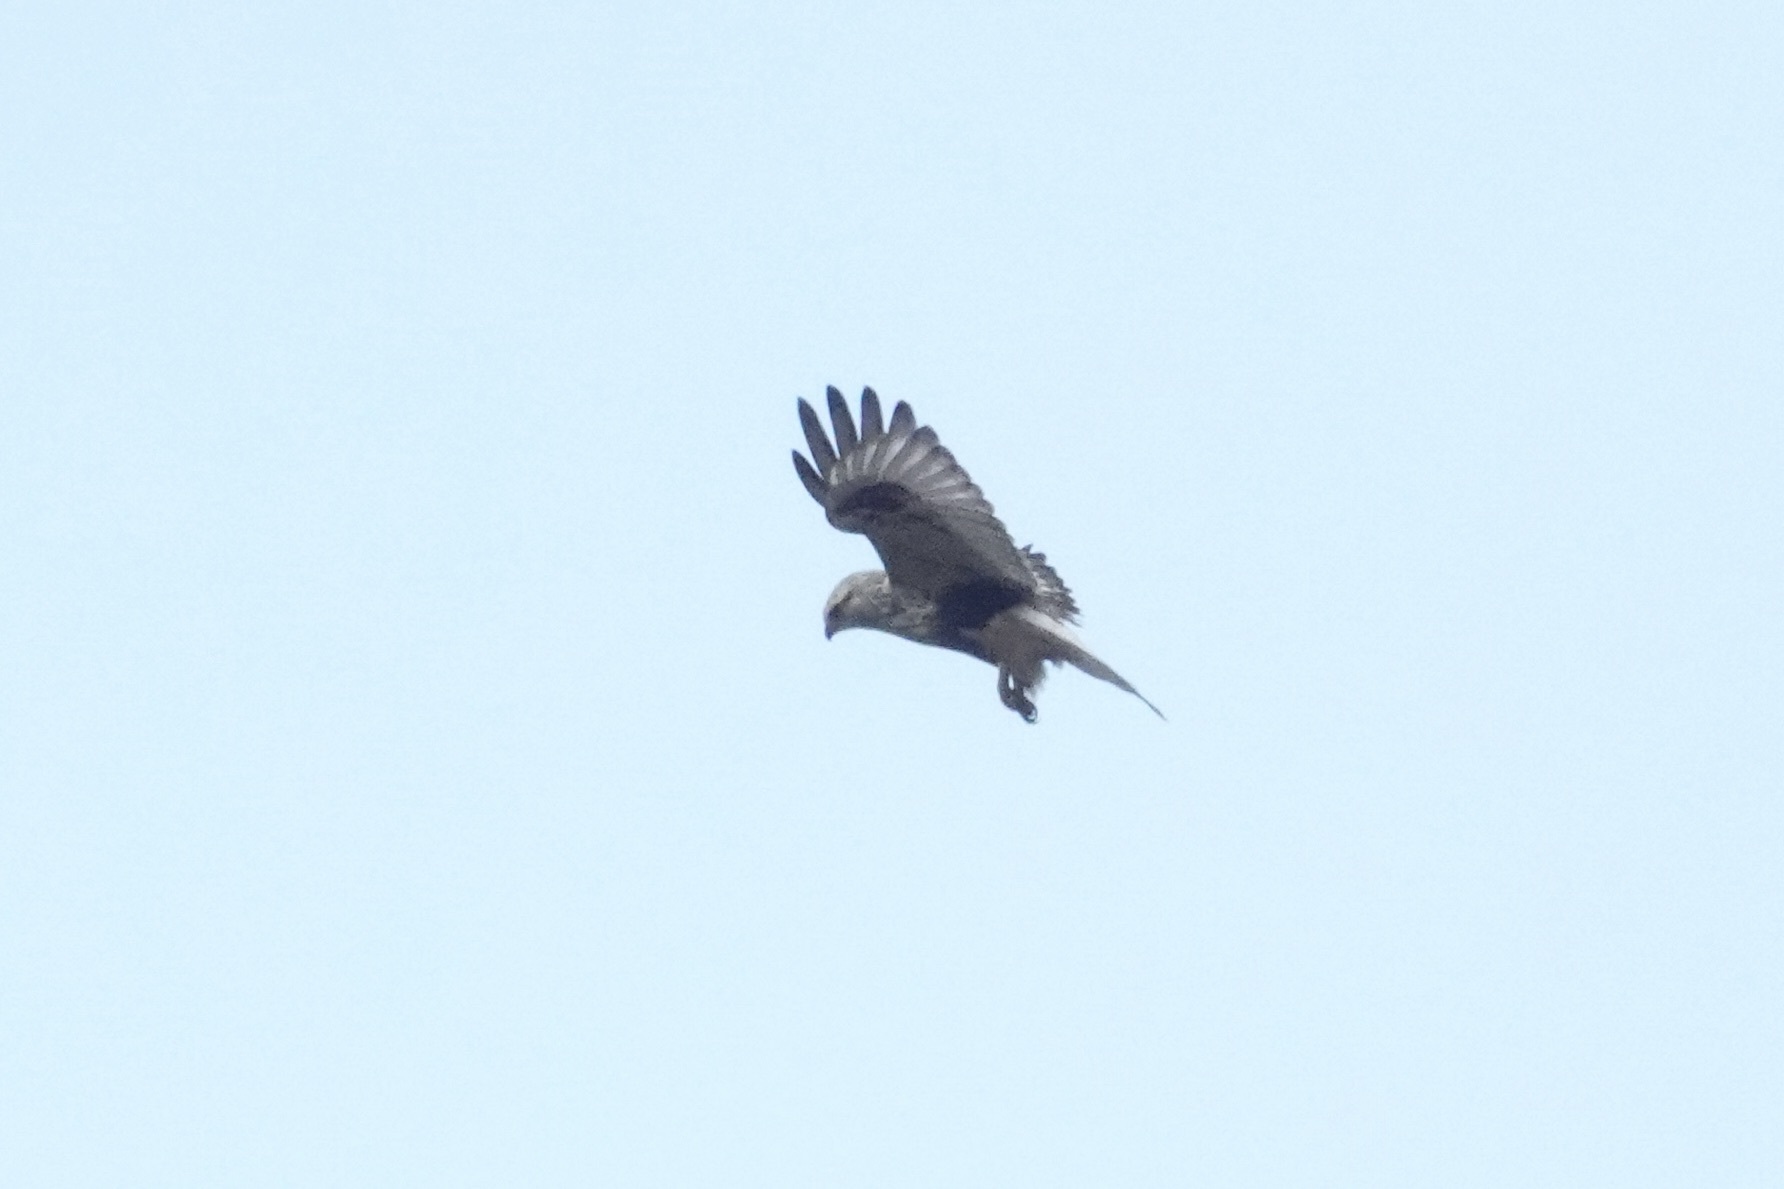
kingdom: Animalia
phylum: Chordata
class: Aves
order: Accipitriformes
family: Accipitridae
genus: Buteo
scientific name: Buteo lagopus
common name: Rough-legged buzzard
